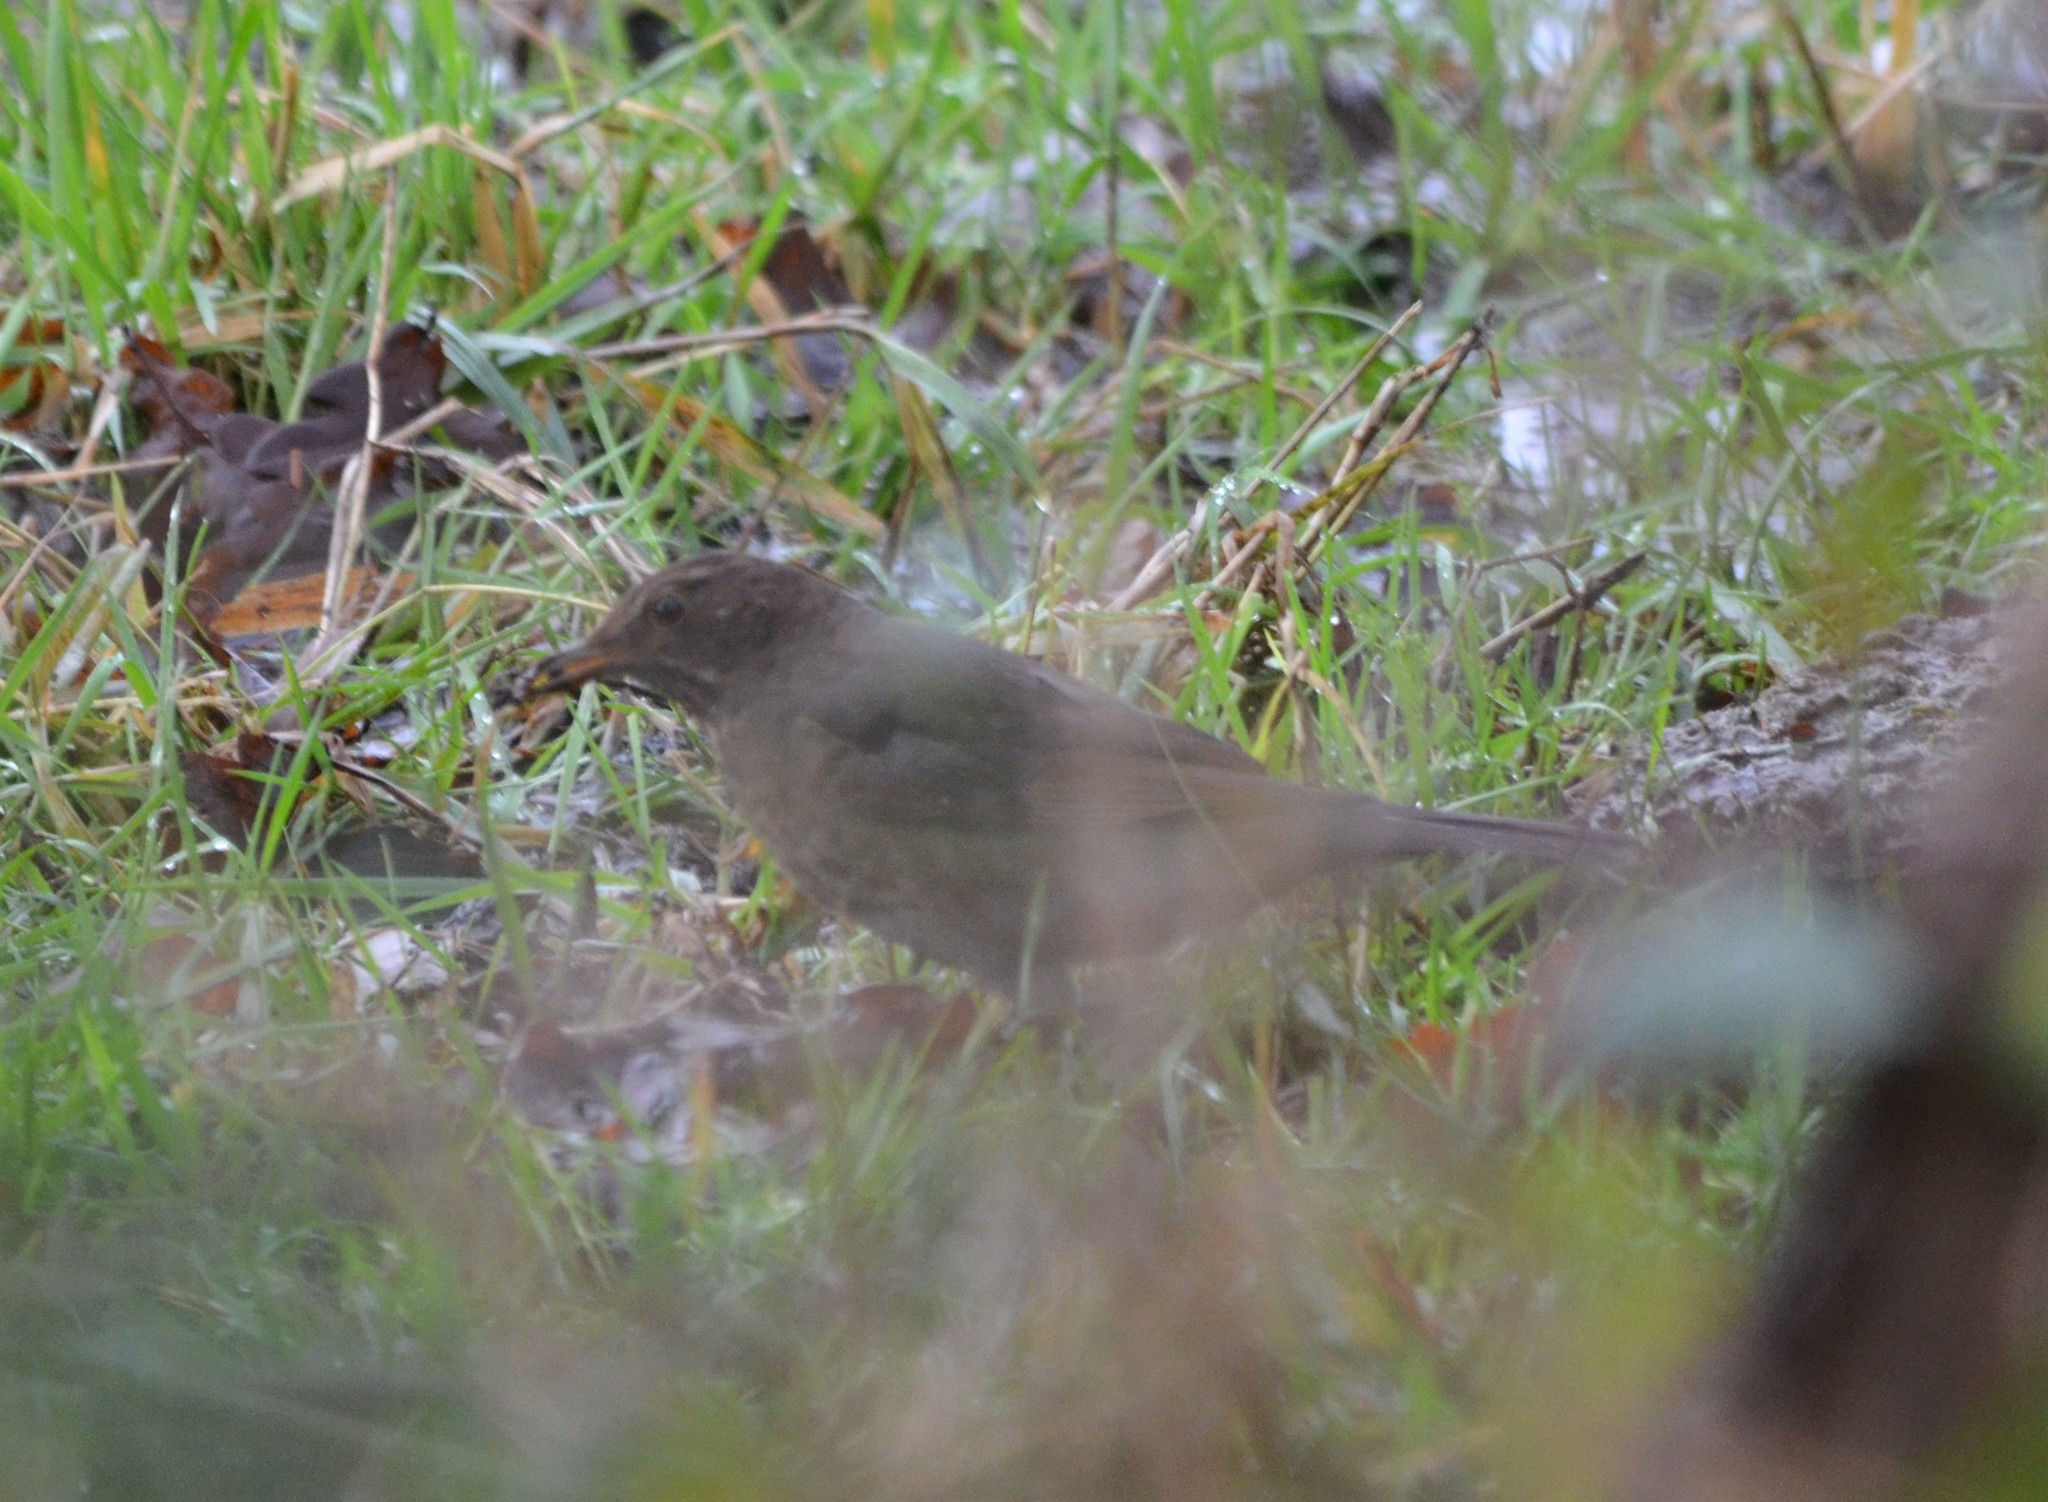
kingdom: Animalia
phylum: Chordata
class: Aves
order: Passeriformes
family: Turdidae
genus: Turdus
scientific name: Turdus merula
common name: Common blackbird
